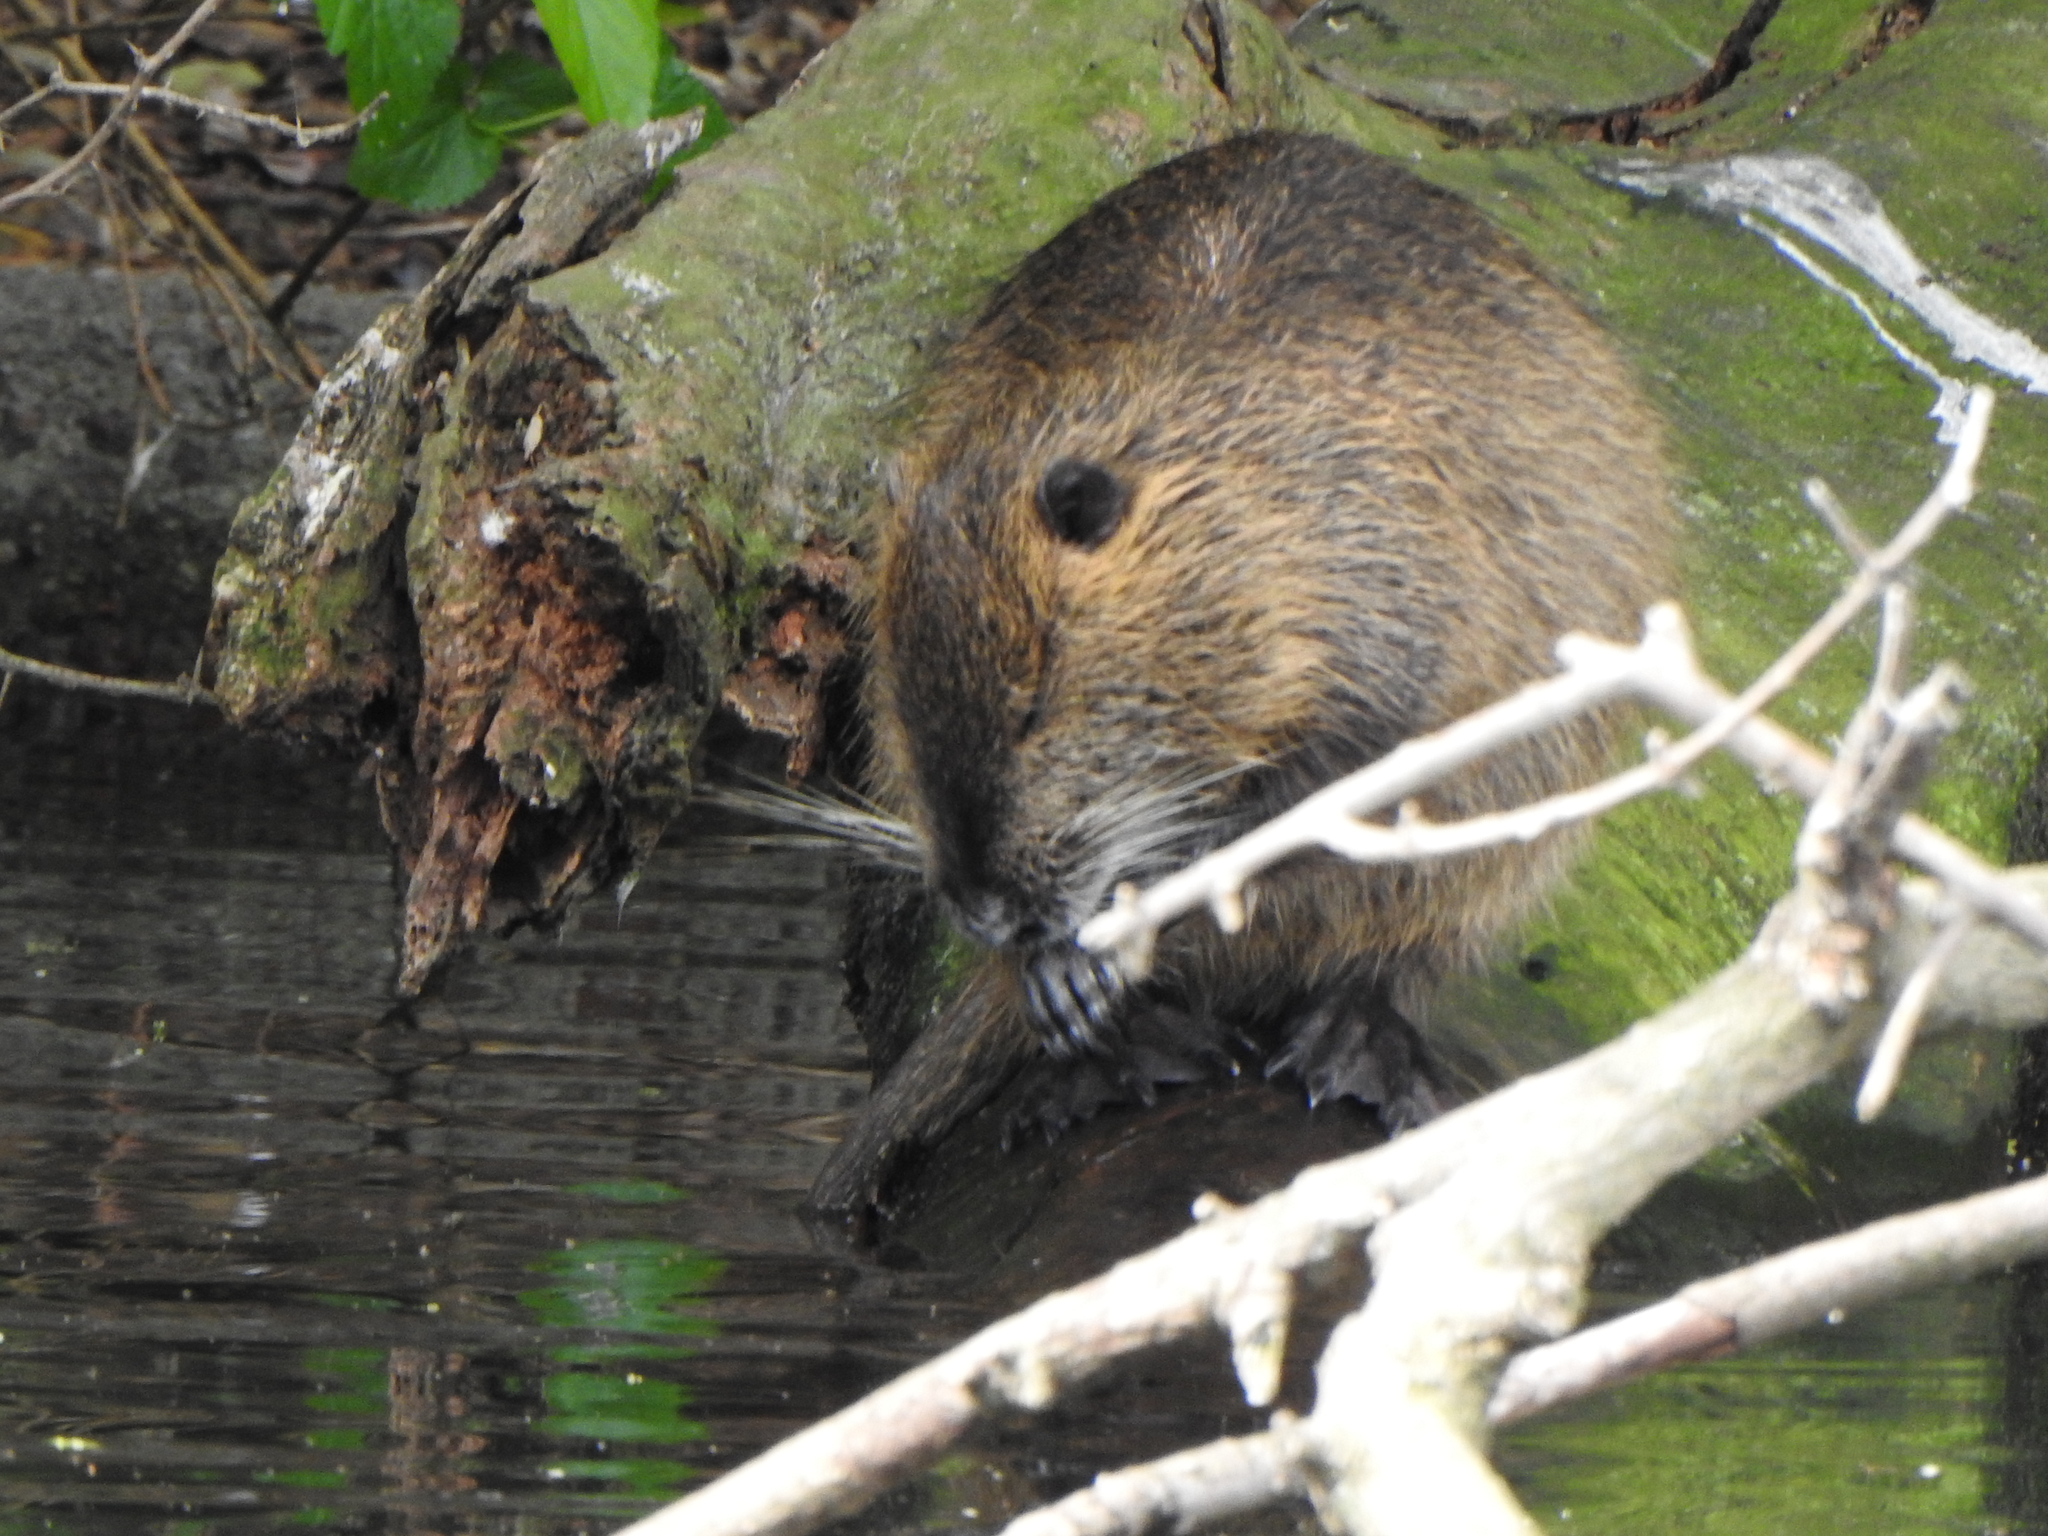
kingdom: Animalia
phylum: Chordata
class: Mammalia
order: Rodentia
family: Myocastoridae
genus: Myocastor
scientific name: Myocastor coypus
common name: Coypu
